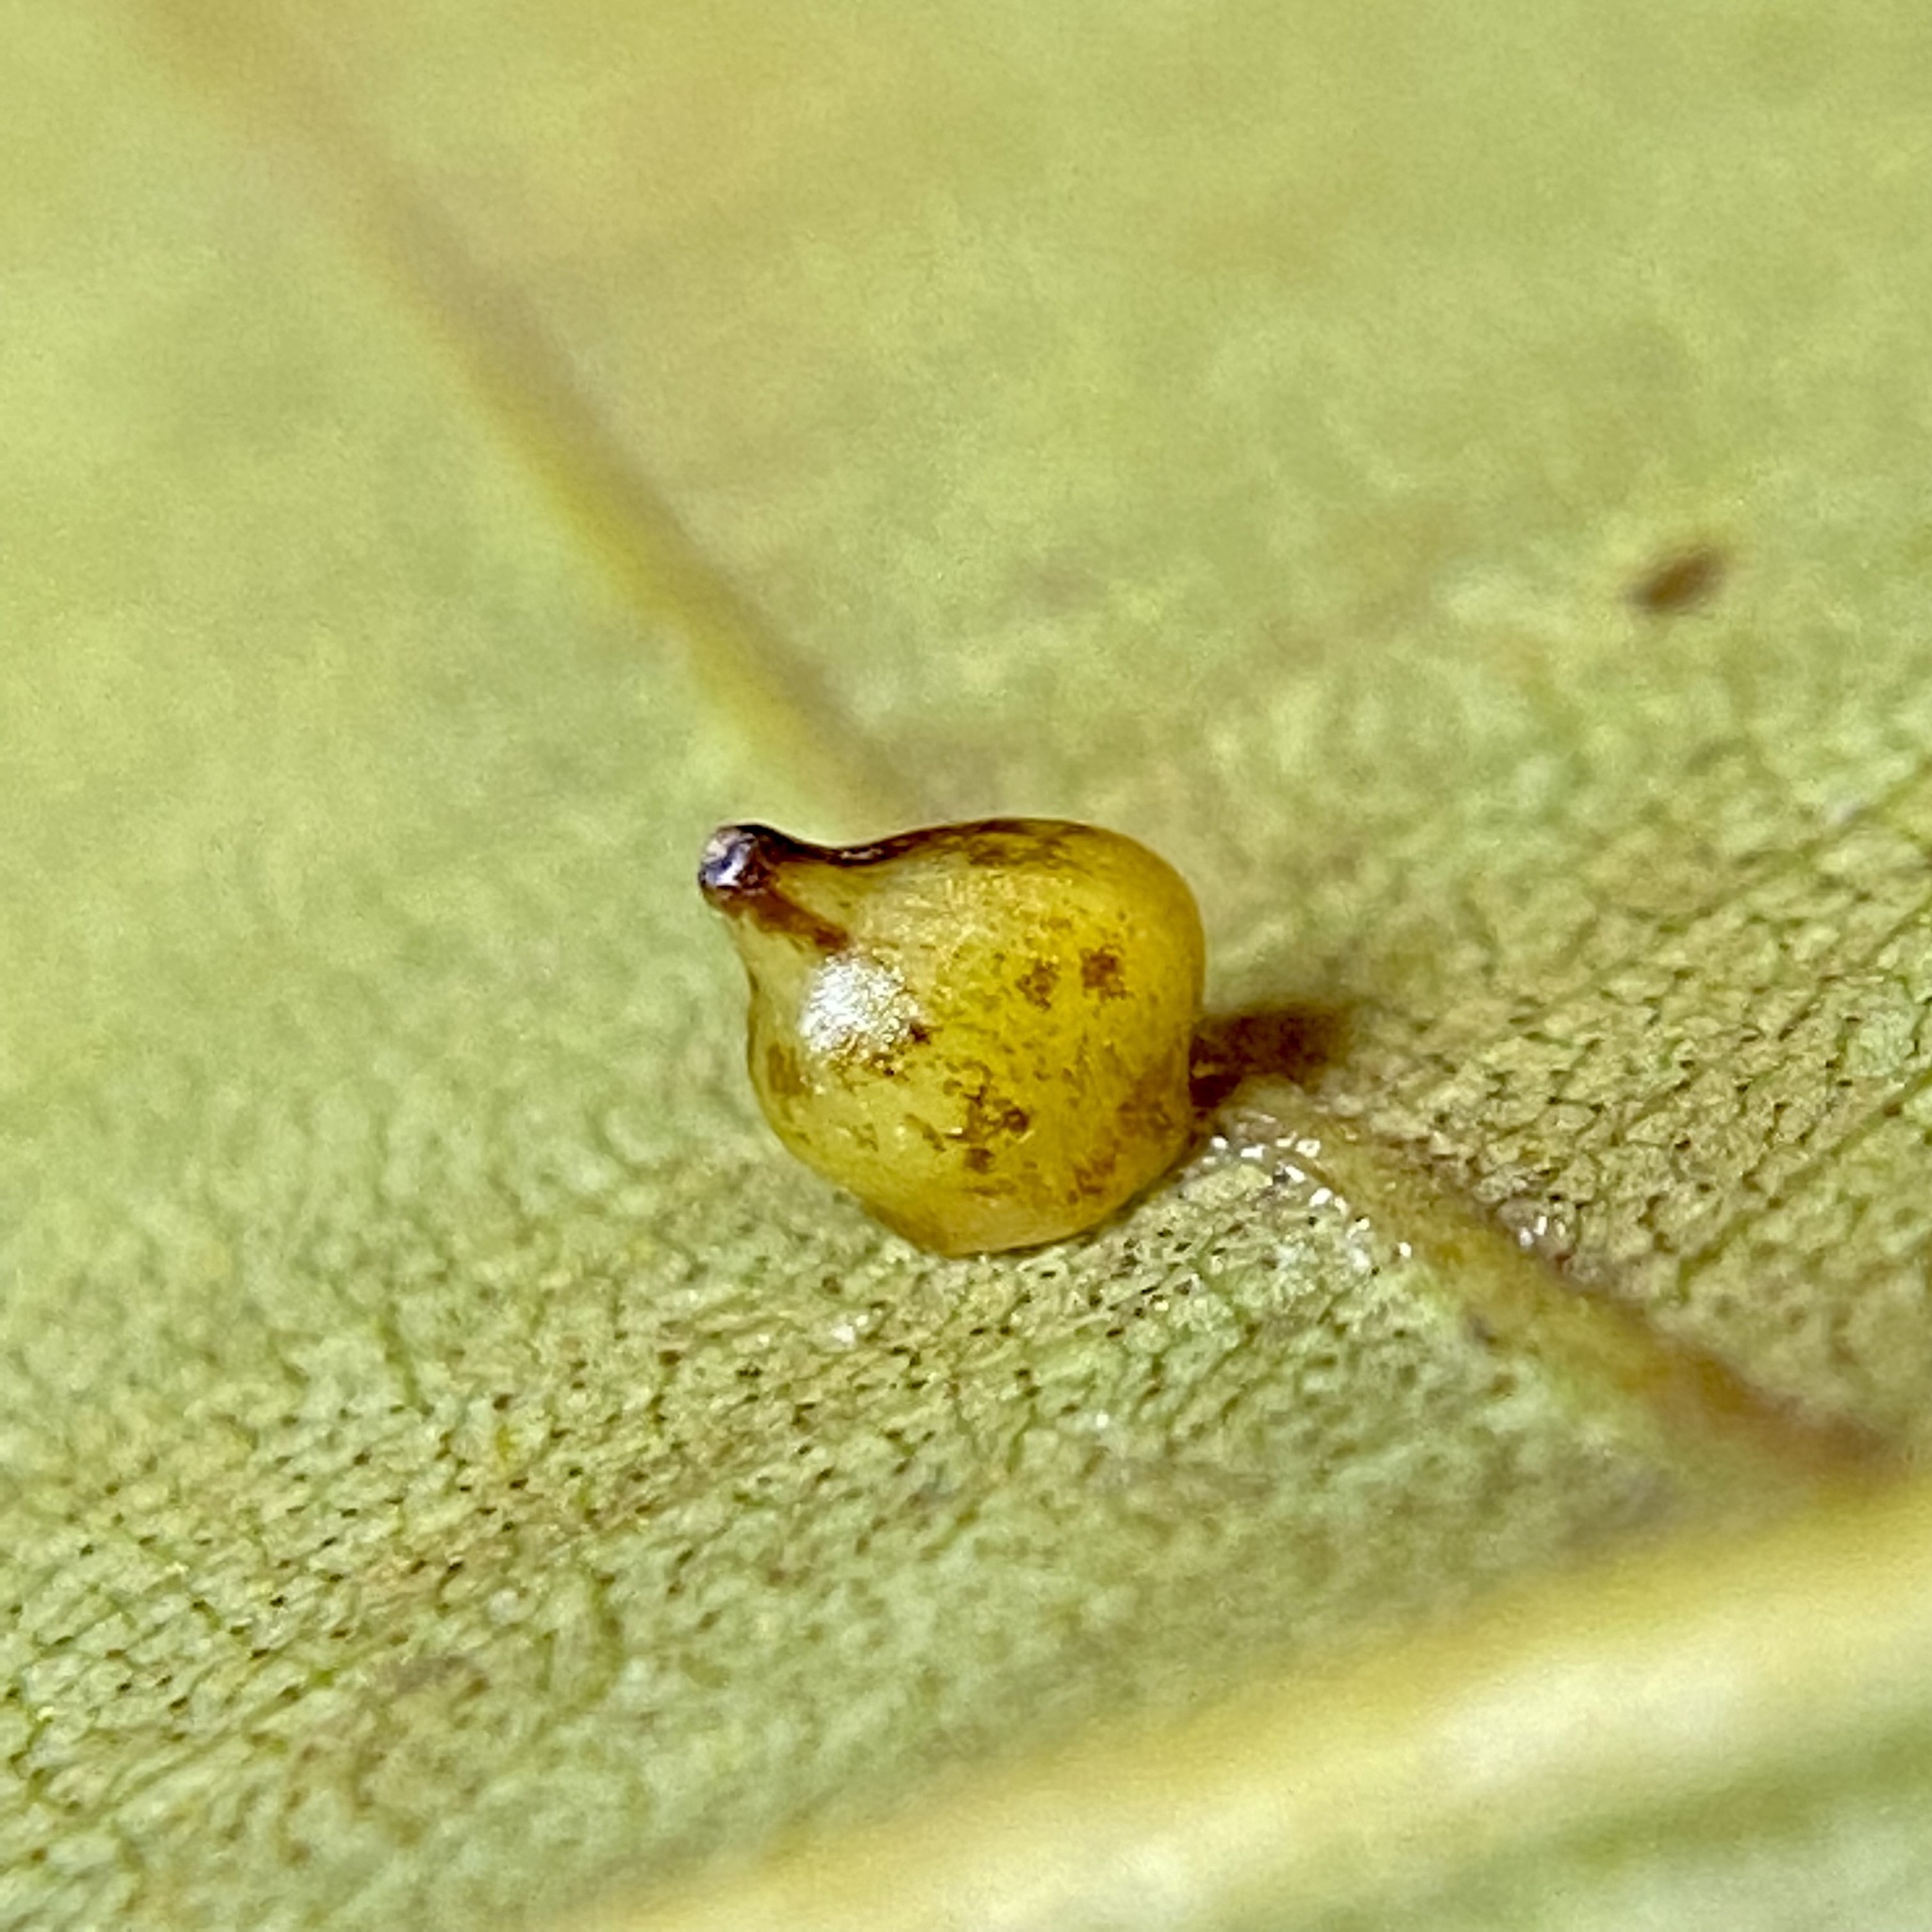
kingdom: Animalia
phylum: Arthropoda
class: Insecta
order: Diptera
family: Cecidomyiidae
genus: Caryomyia
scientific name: Caryomyia shmoo
